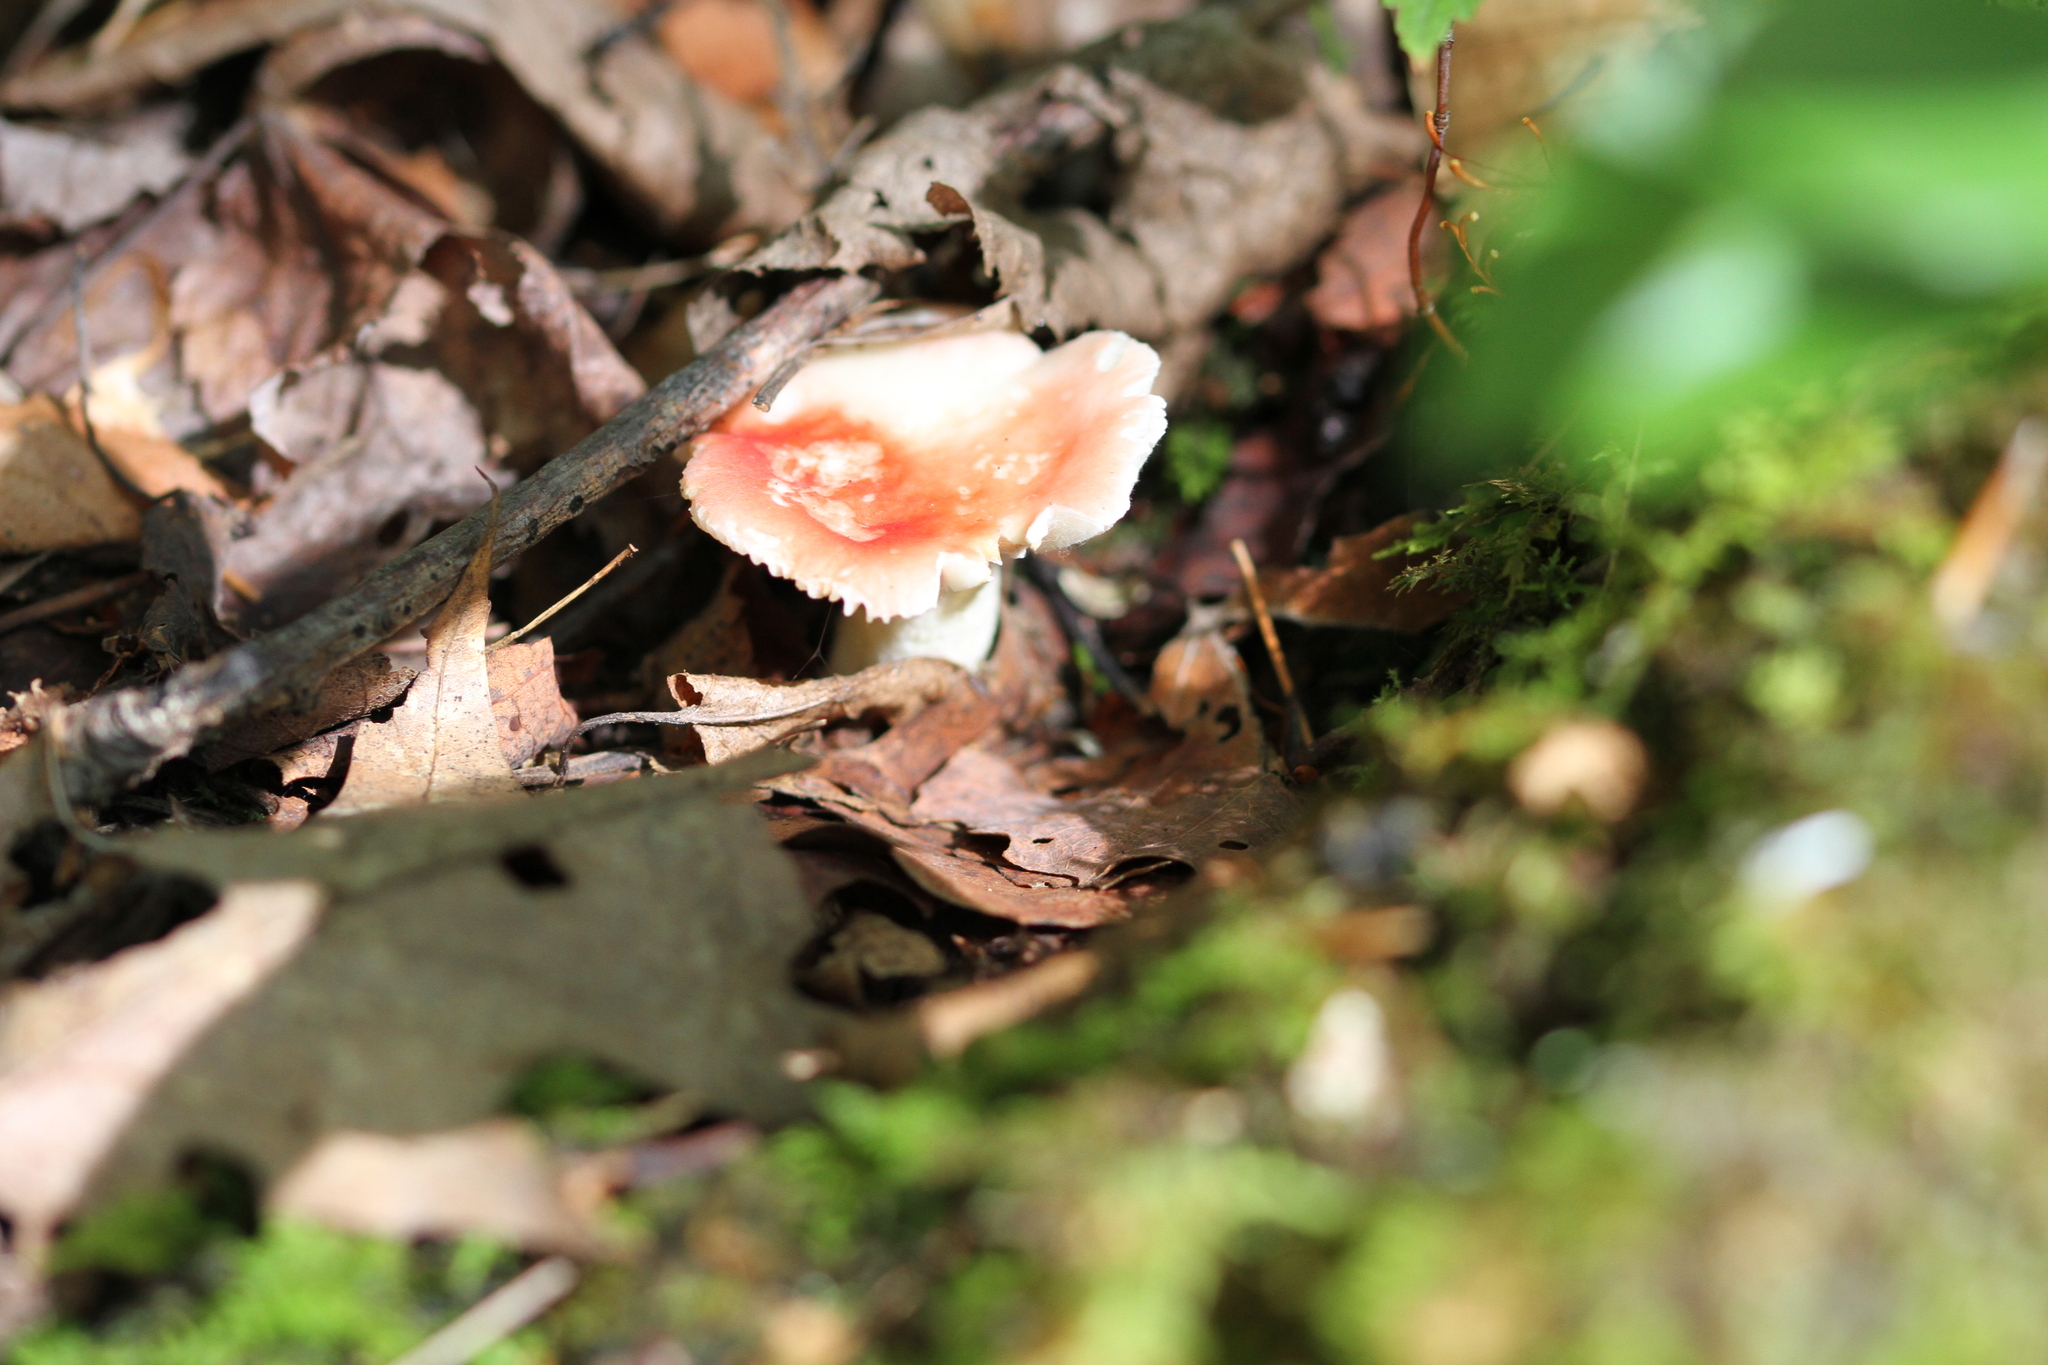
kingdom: Fungi
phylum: Basidiomycota
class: Agaricomycetes
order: Russulales
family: Russulaceae
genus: Russula
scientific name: Russula
